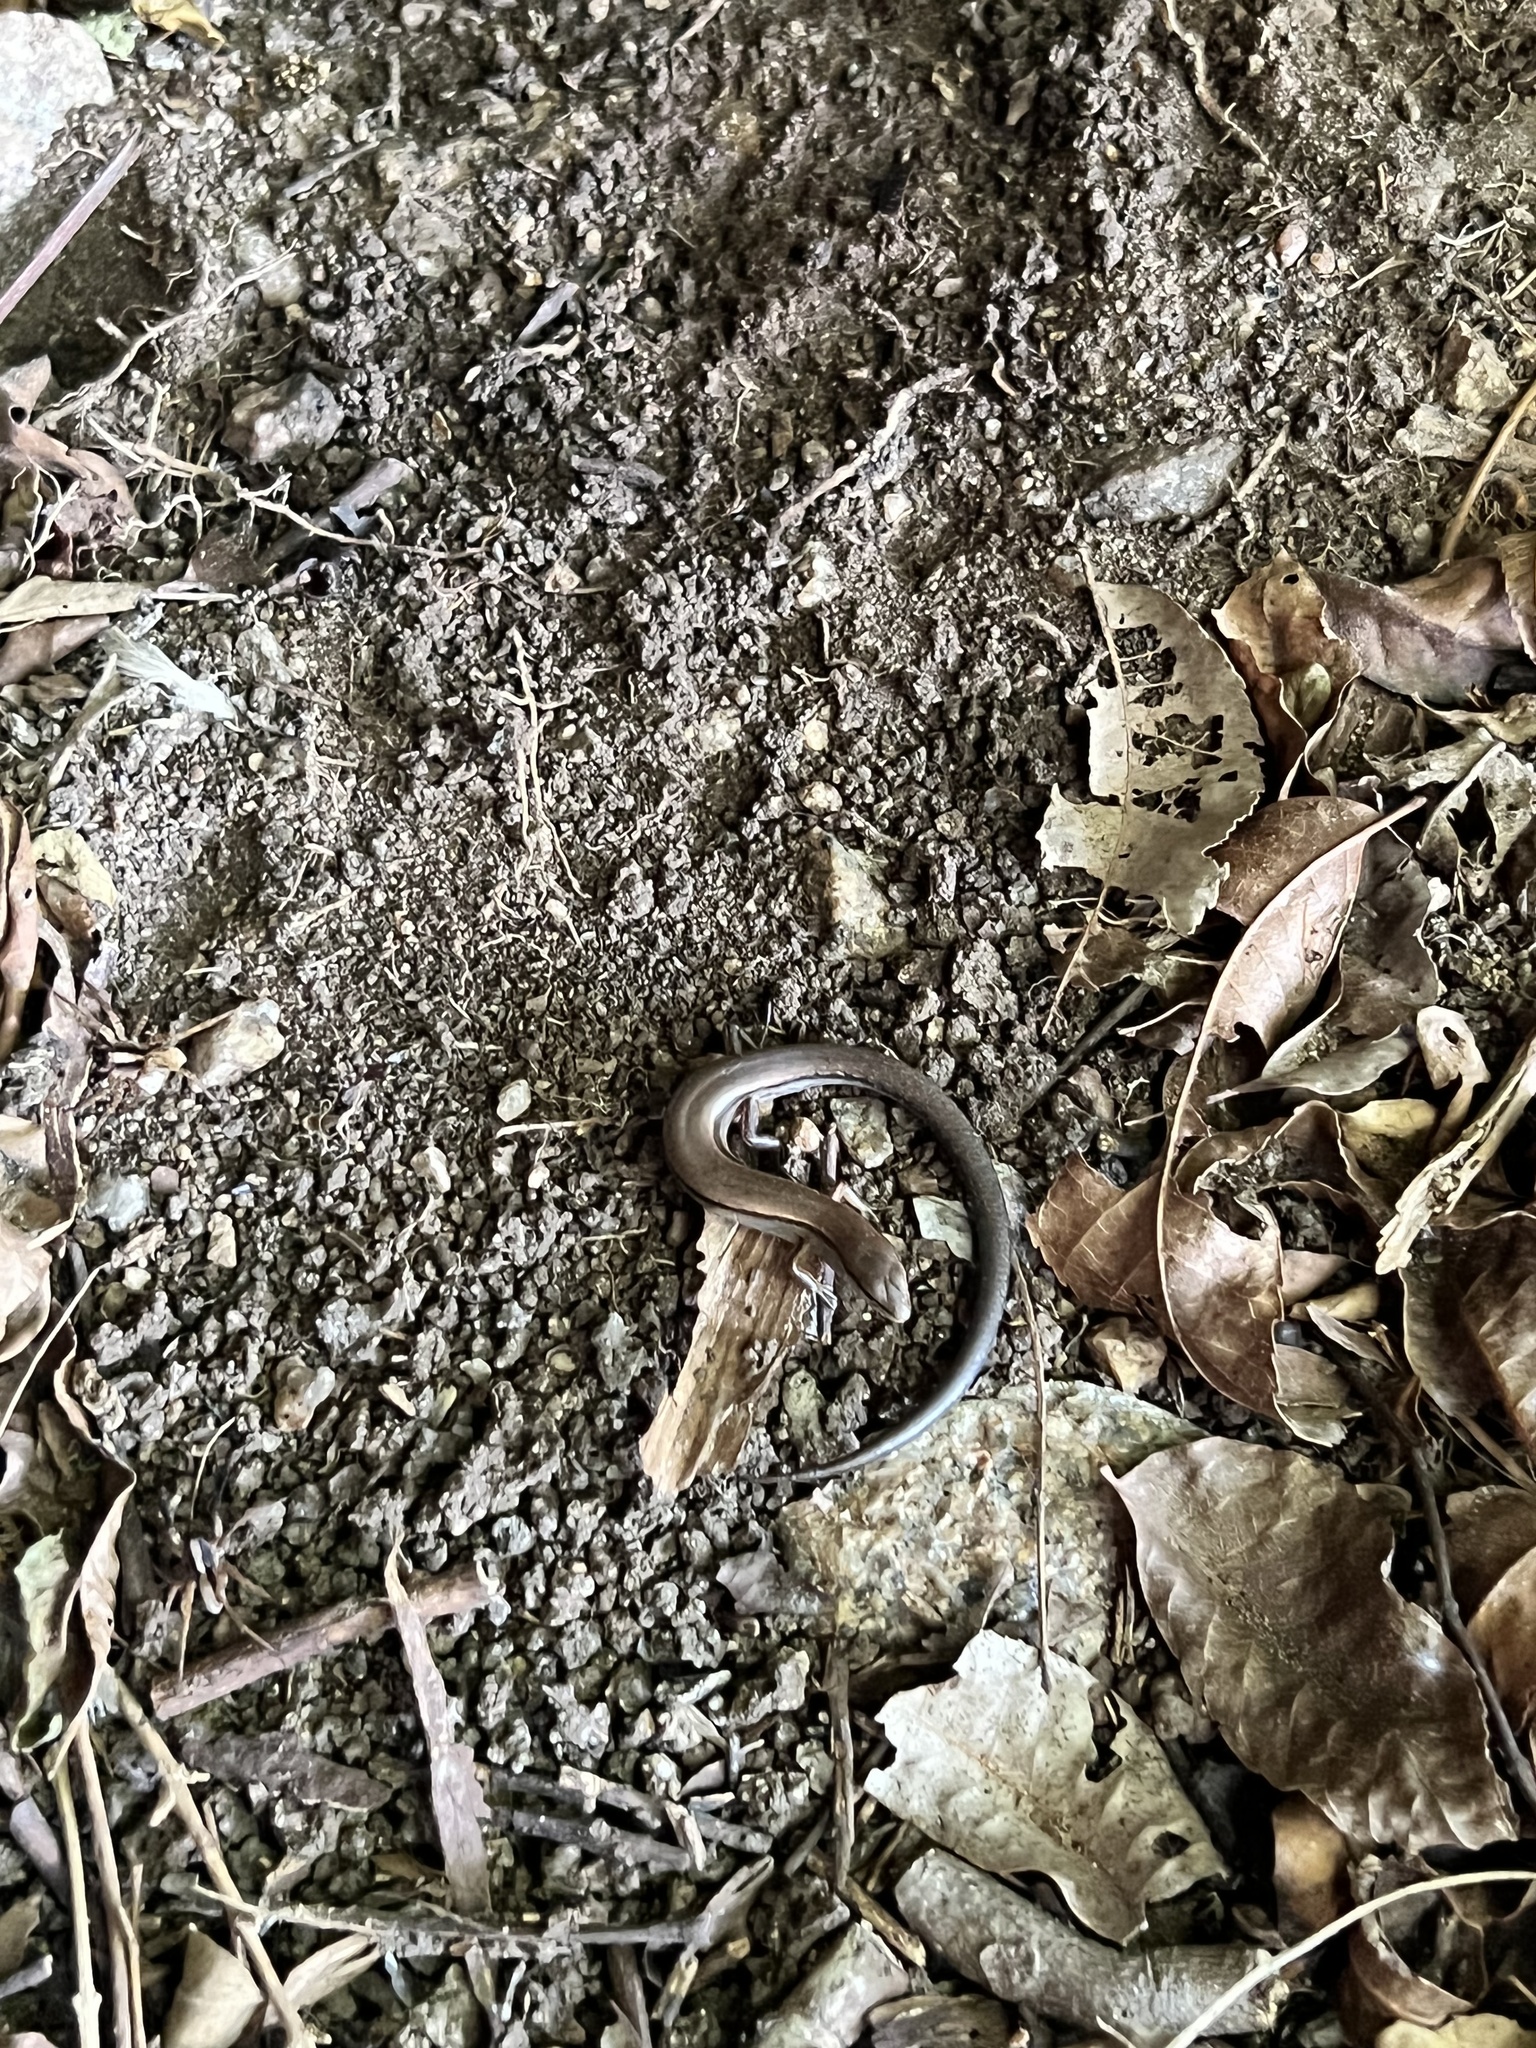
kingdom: Animalia
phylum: Chordata
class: Squamata
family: Scincidae
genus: Scincella
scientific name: Scincella lateralis
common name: Ground skink
